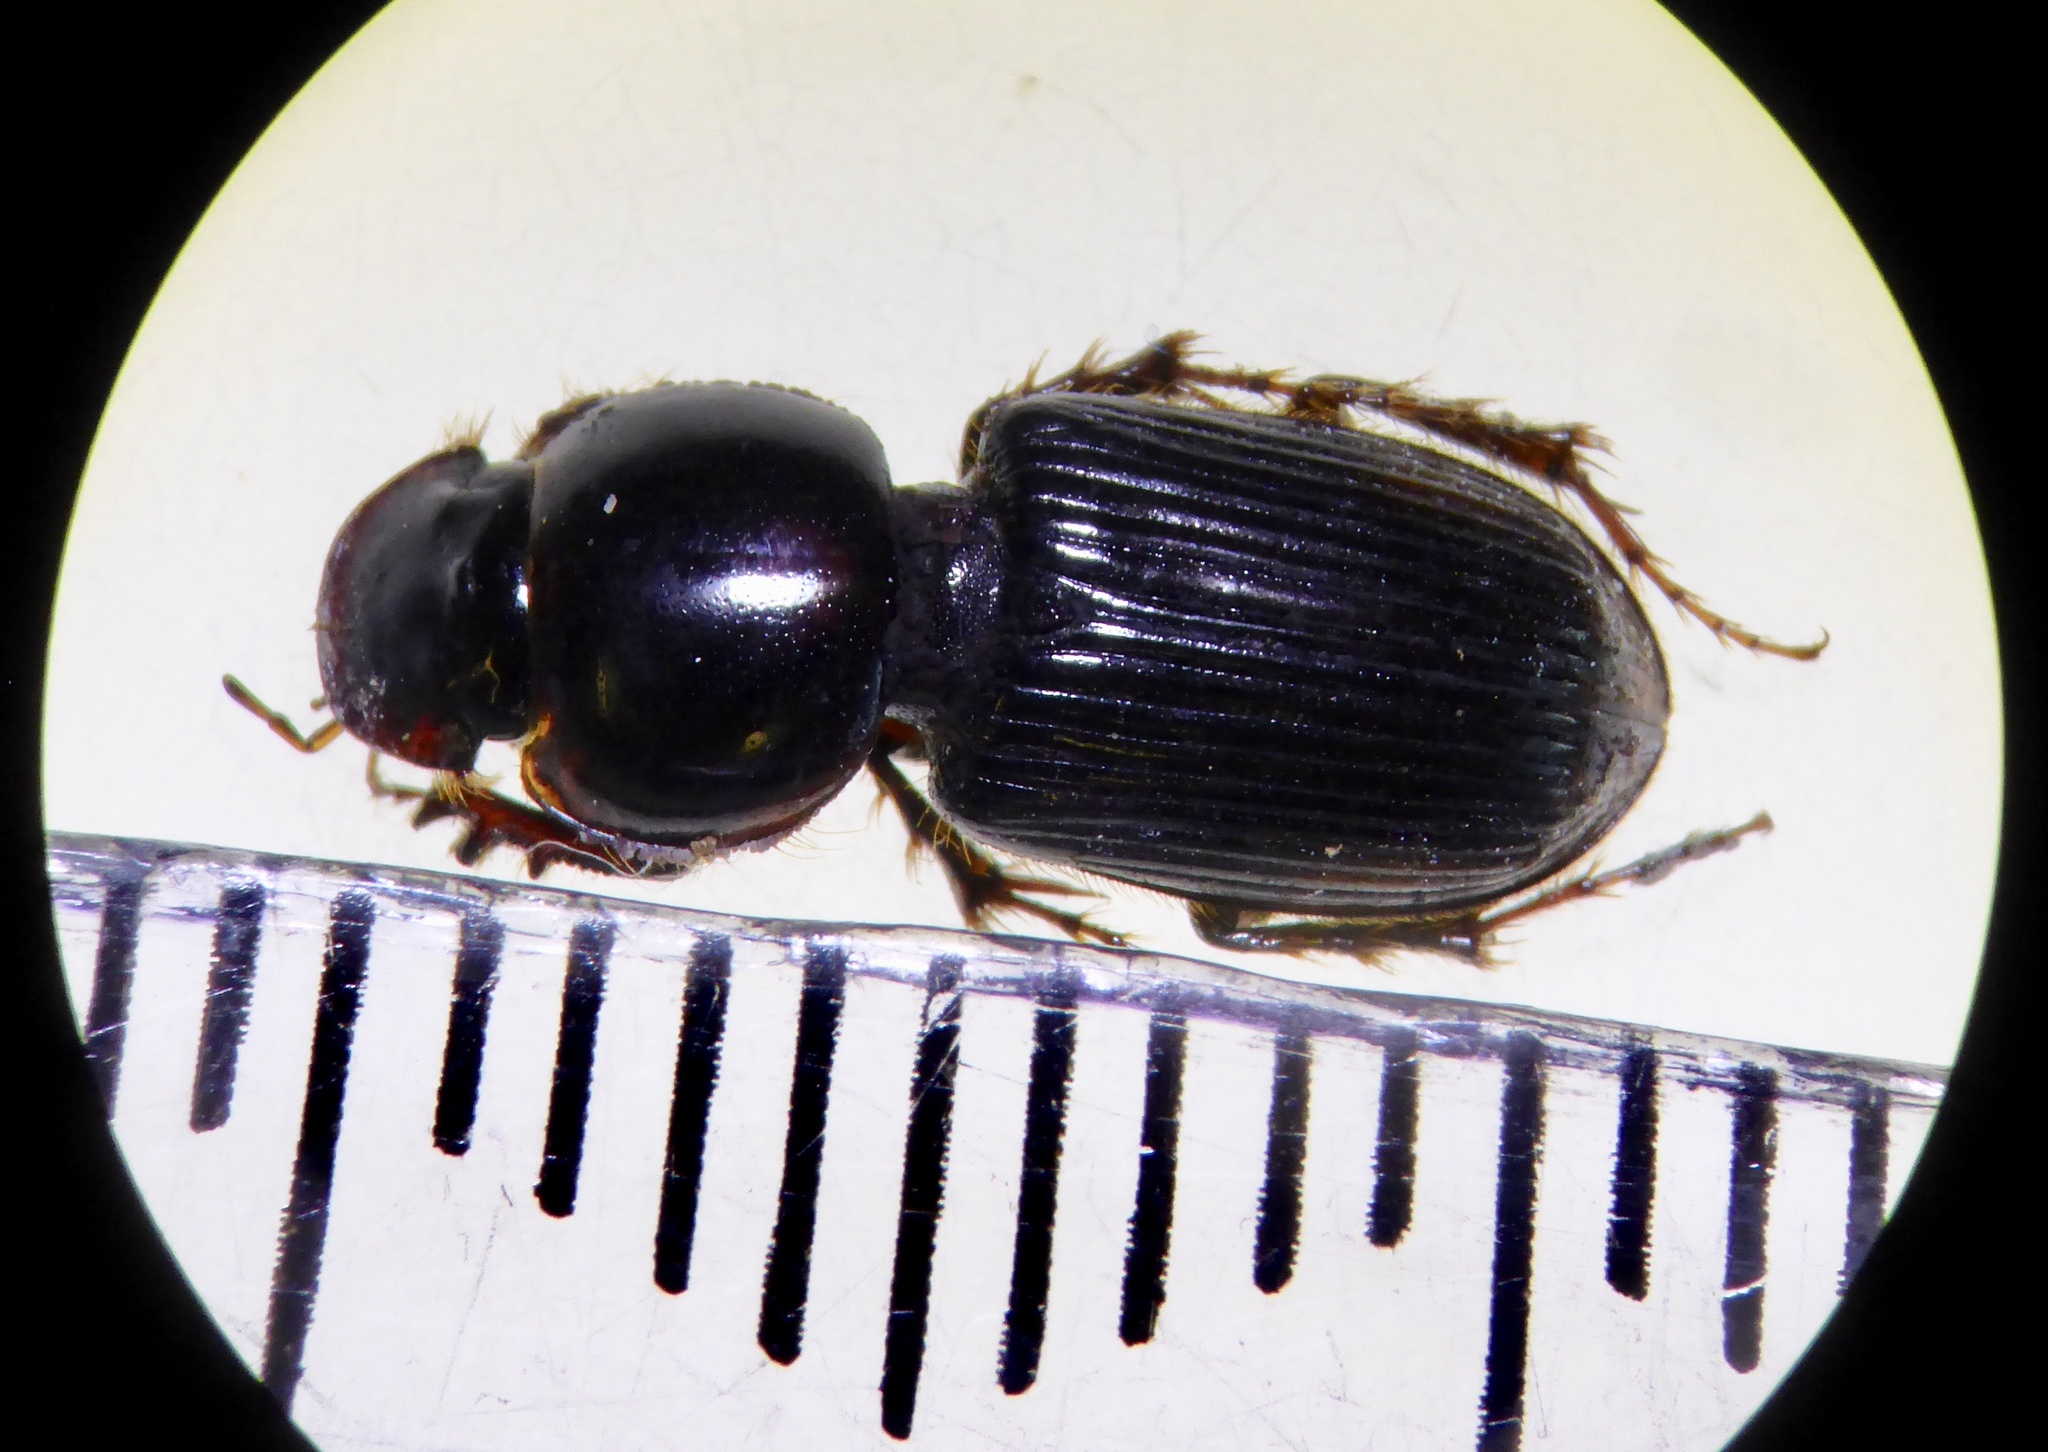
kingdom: Animalia
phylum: Arthropoda
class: Insecta
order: Coleoptera
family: Scarabaeidae
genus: Acrossidius
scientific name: Acrossidius tasmaniae
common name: Black-headed pasture cockchafer
